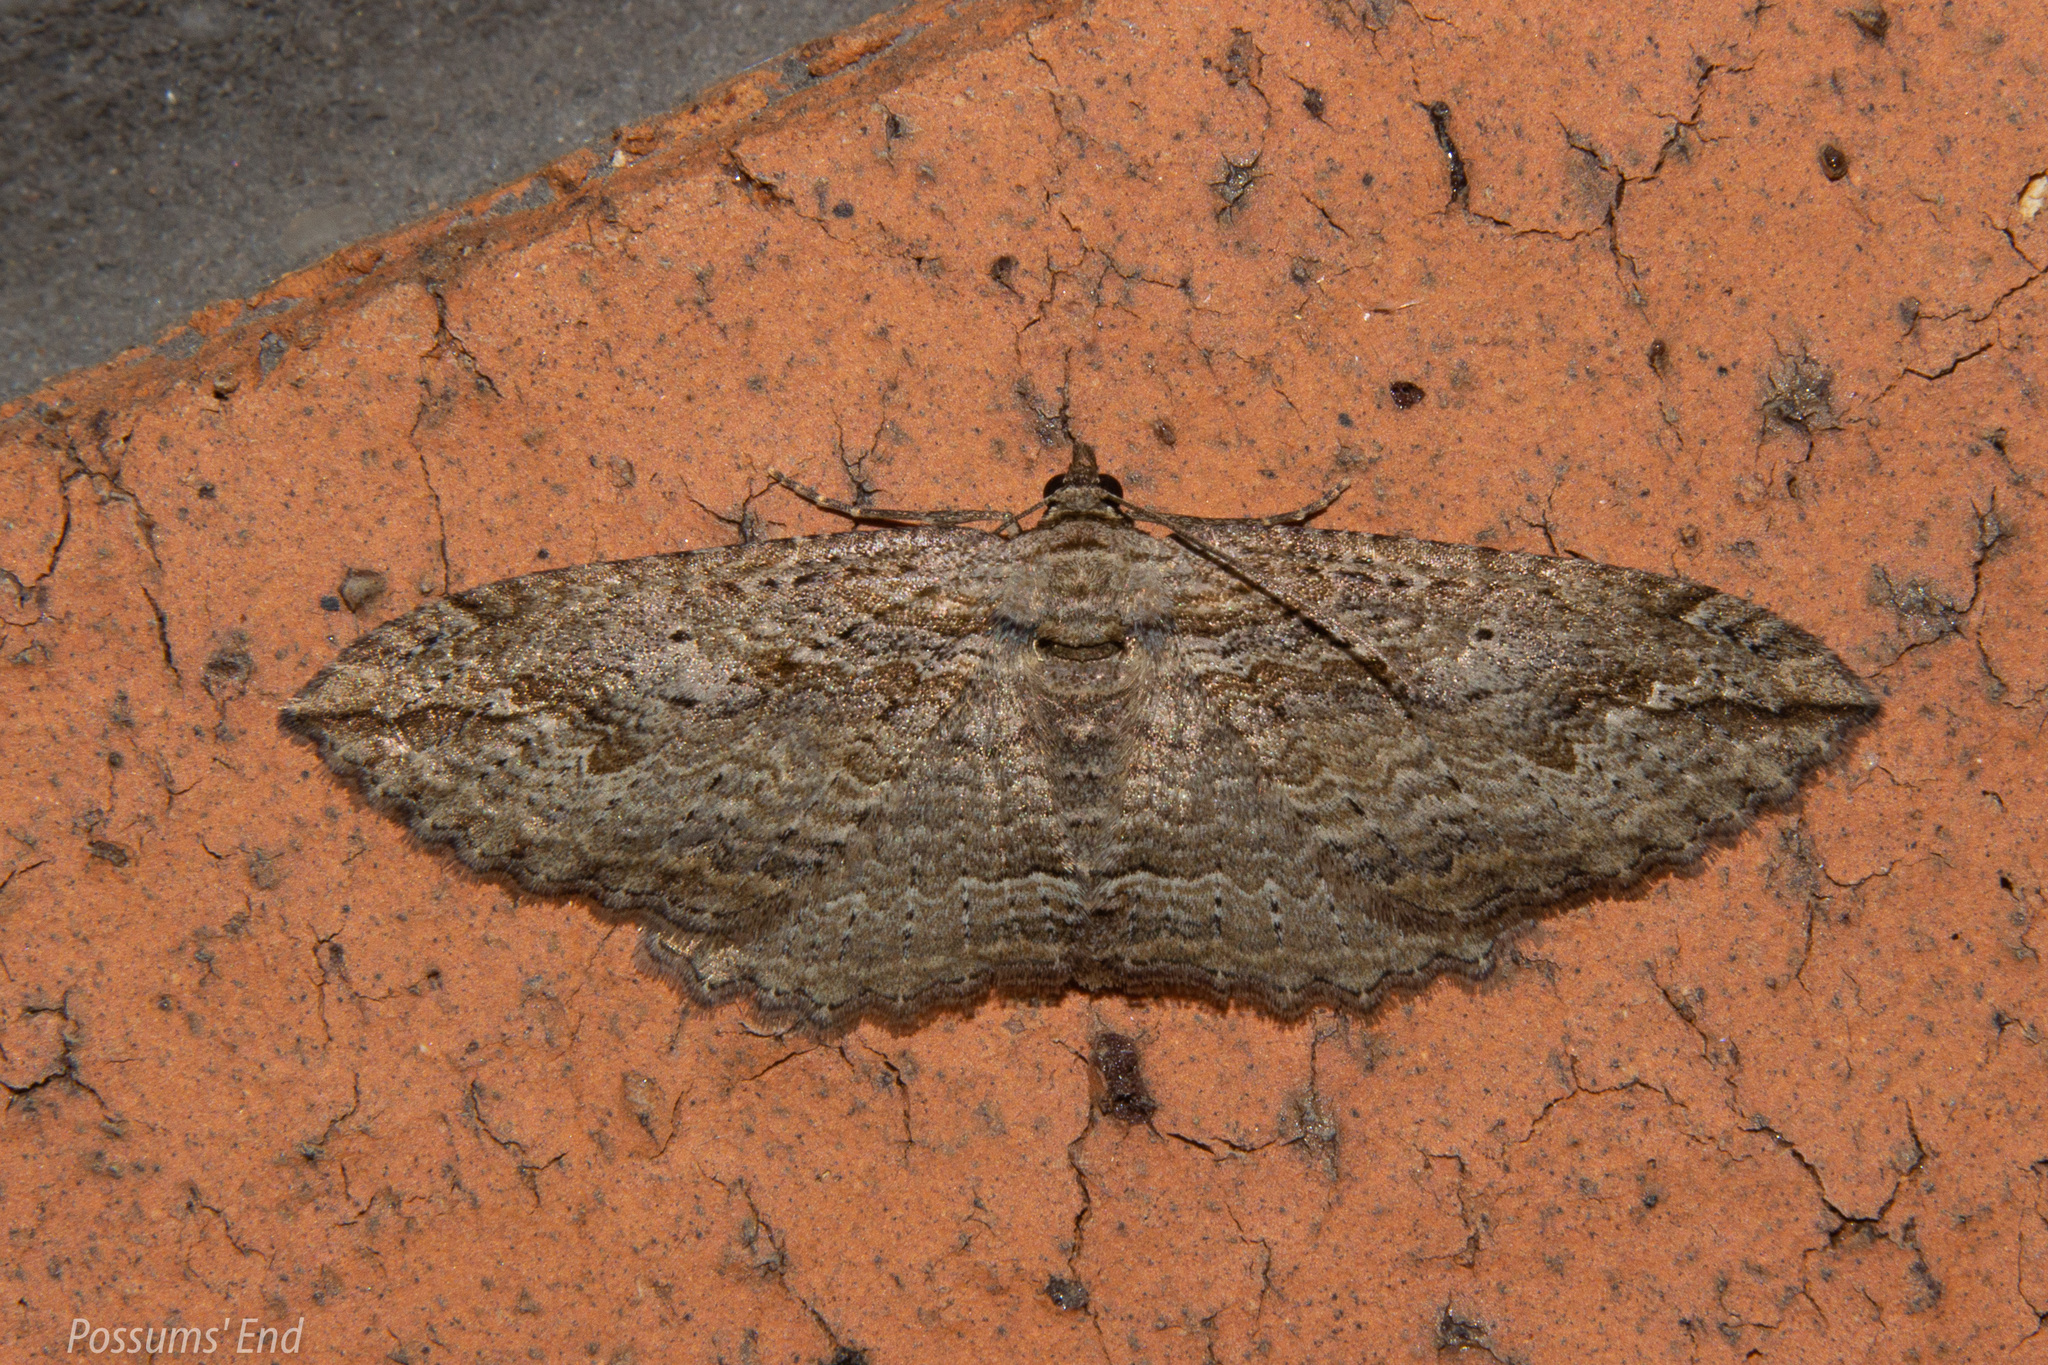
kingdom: Animalia
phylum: Arthropoda
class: Insecta
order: Lepidoptera
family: Geometridae
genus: Austrocidaria
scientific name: Austrocidaria gobiata
